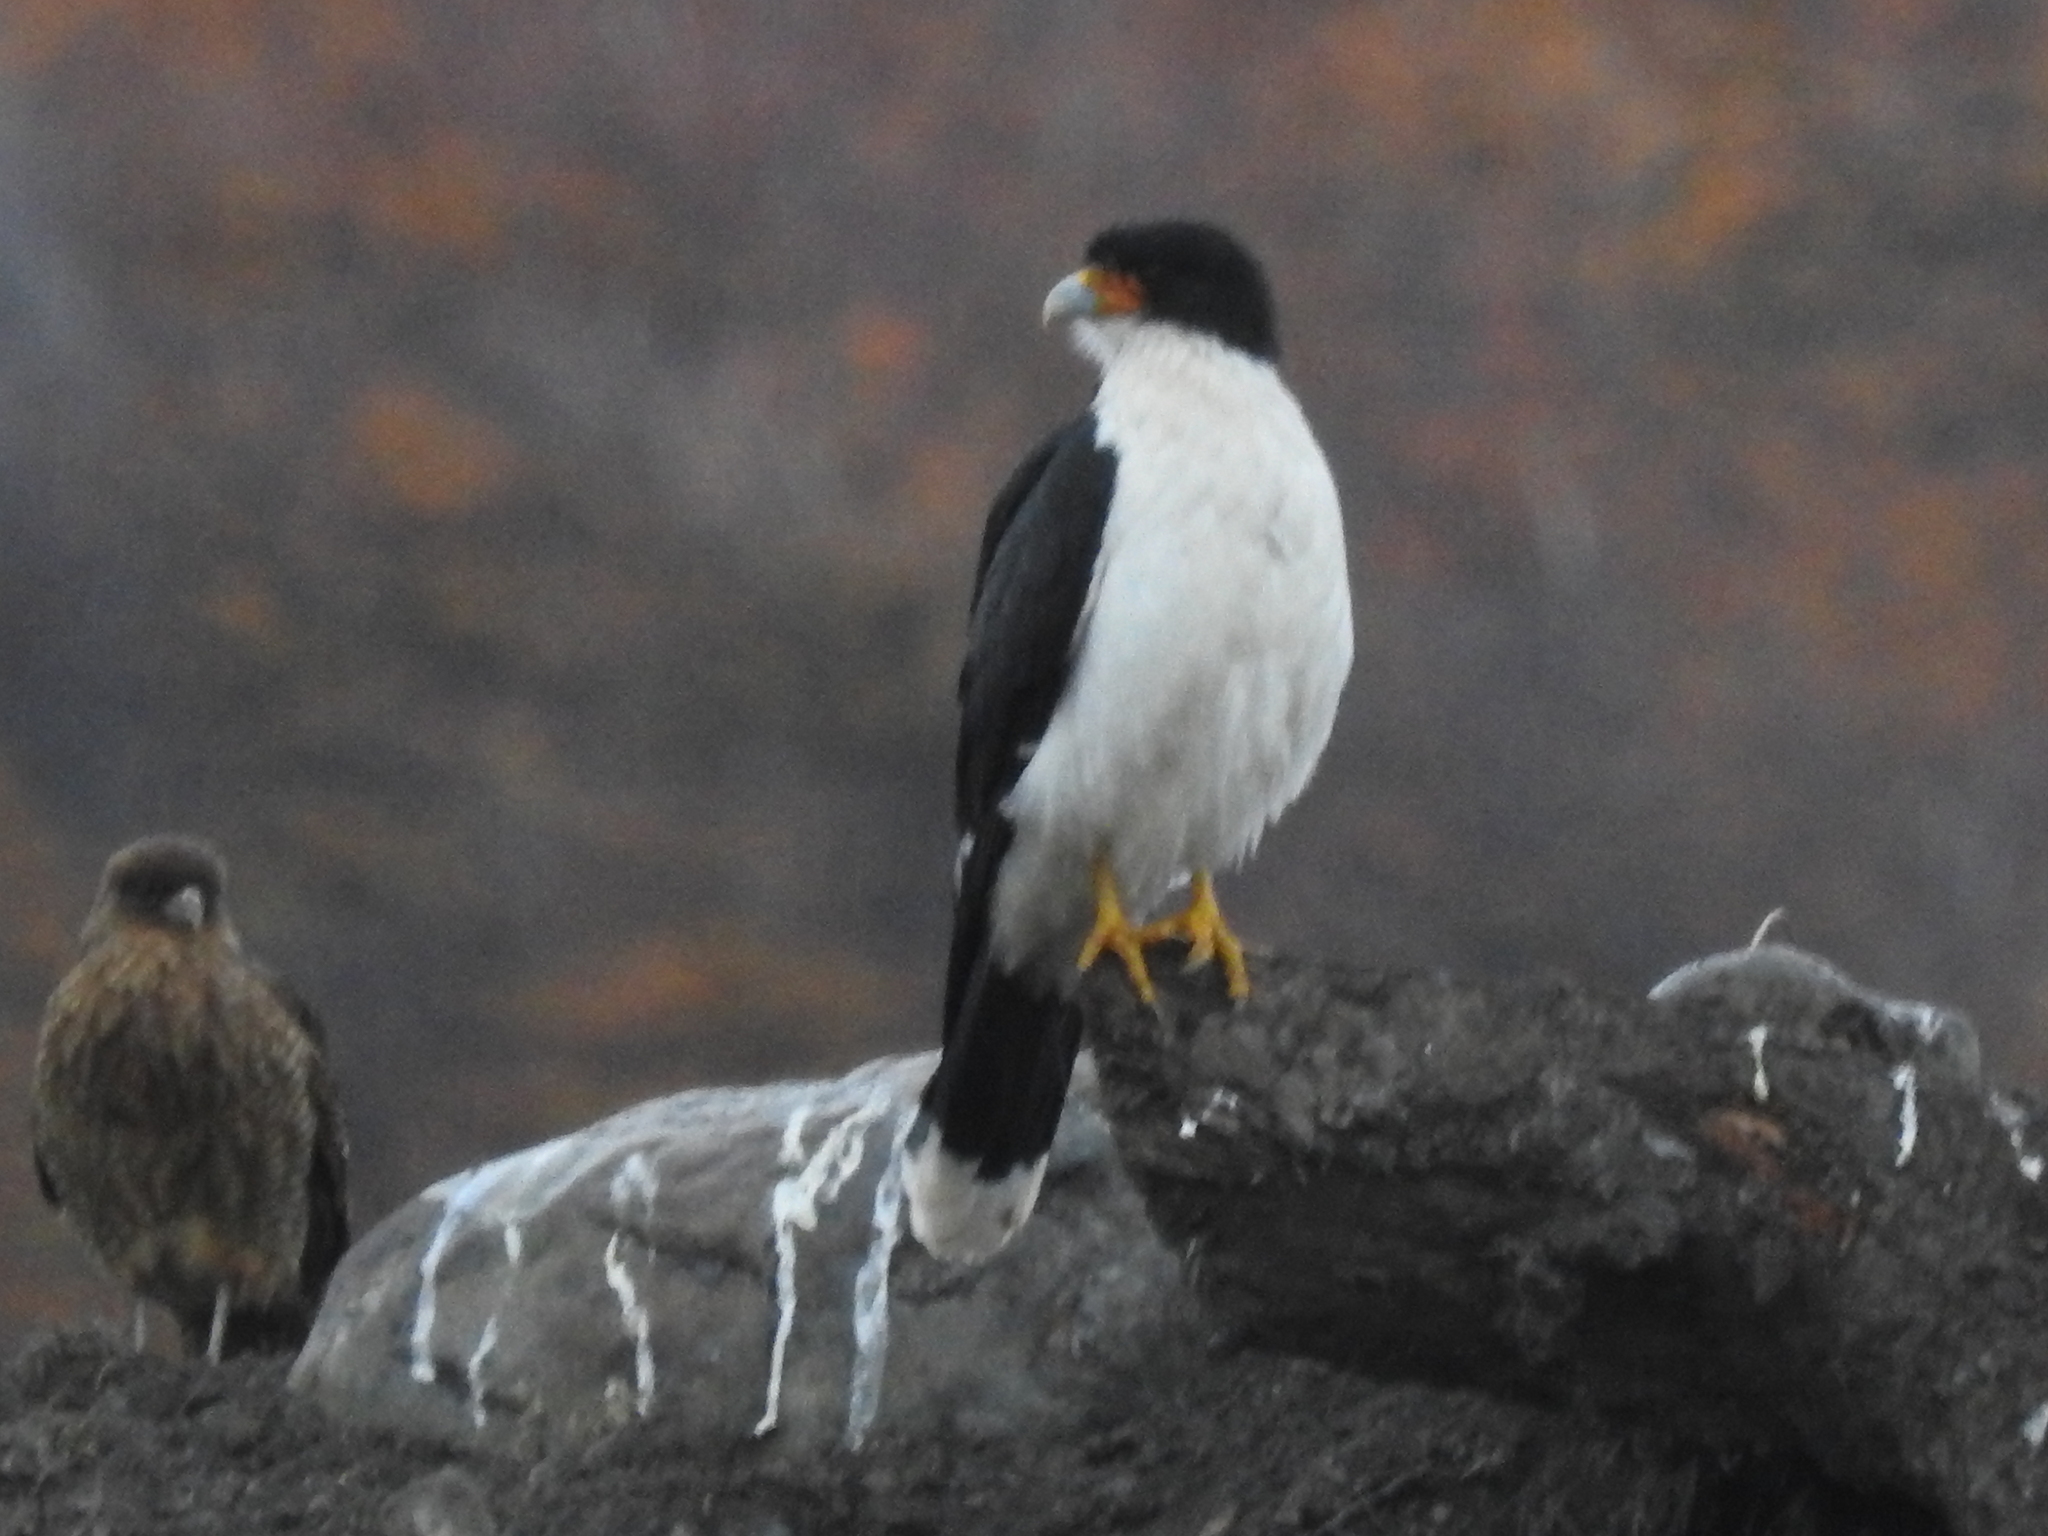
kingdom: Animalia
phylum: Chordata
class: Aves
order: Falconiformes
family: Falconidae
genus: Daptrius
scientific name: Daptrius
